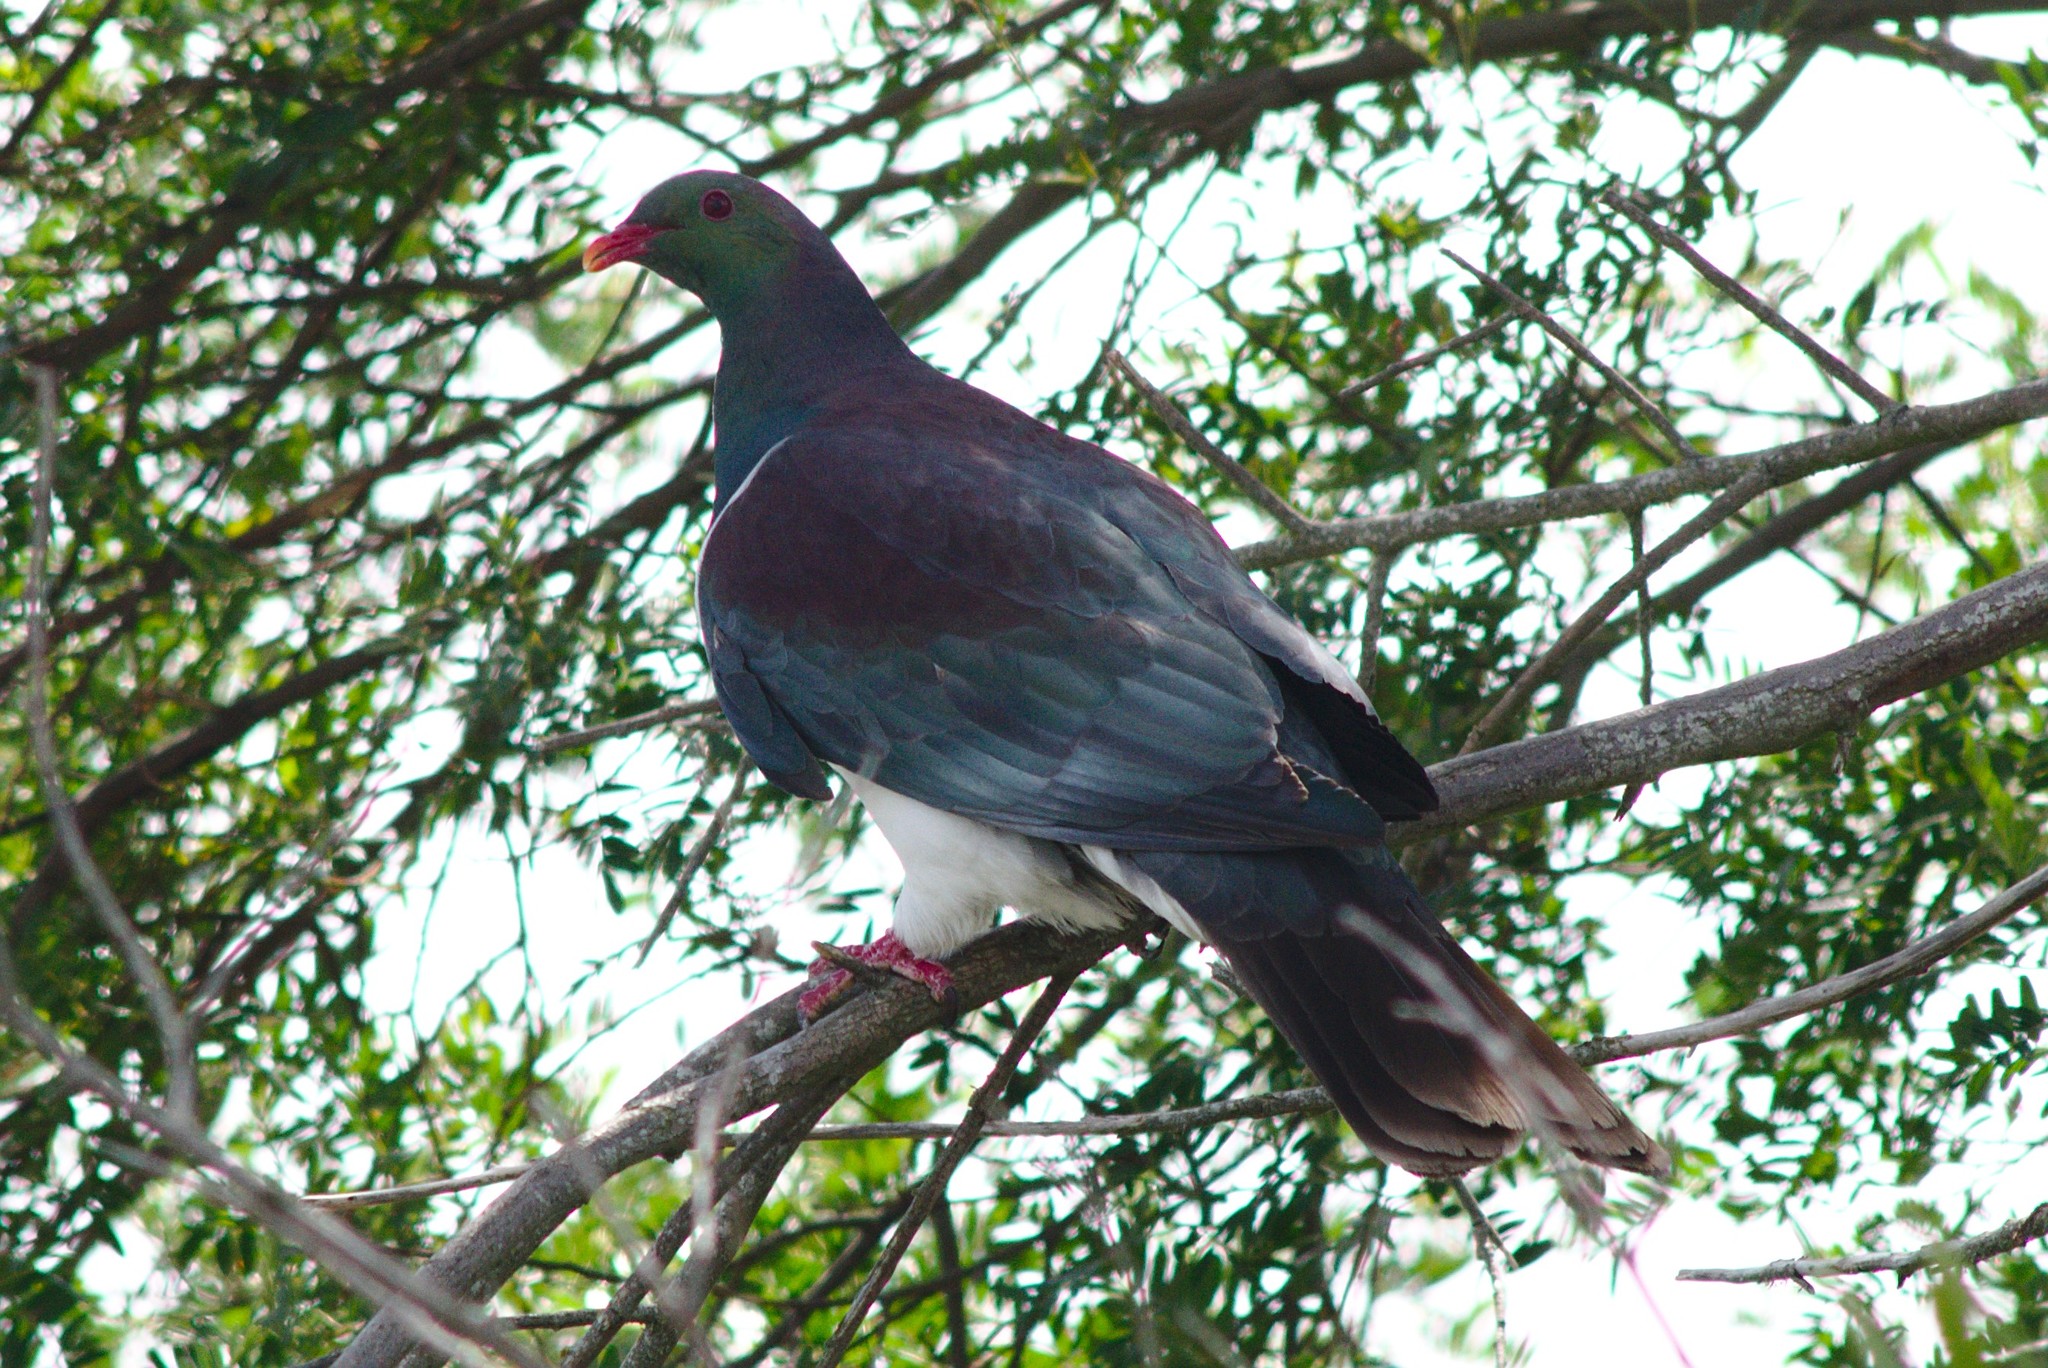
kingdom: Animalia
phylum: Chordata
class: Aves
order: Columbiformes
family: Columbidae
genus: Hemiphaga
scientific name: Hemiphaga novaeseelandiae
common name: New zealand pigeon
